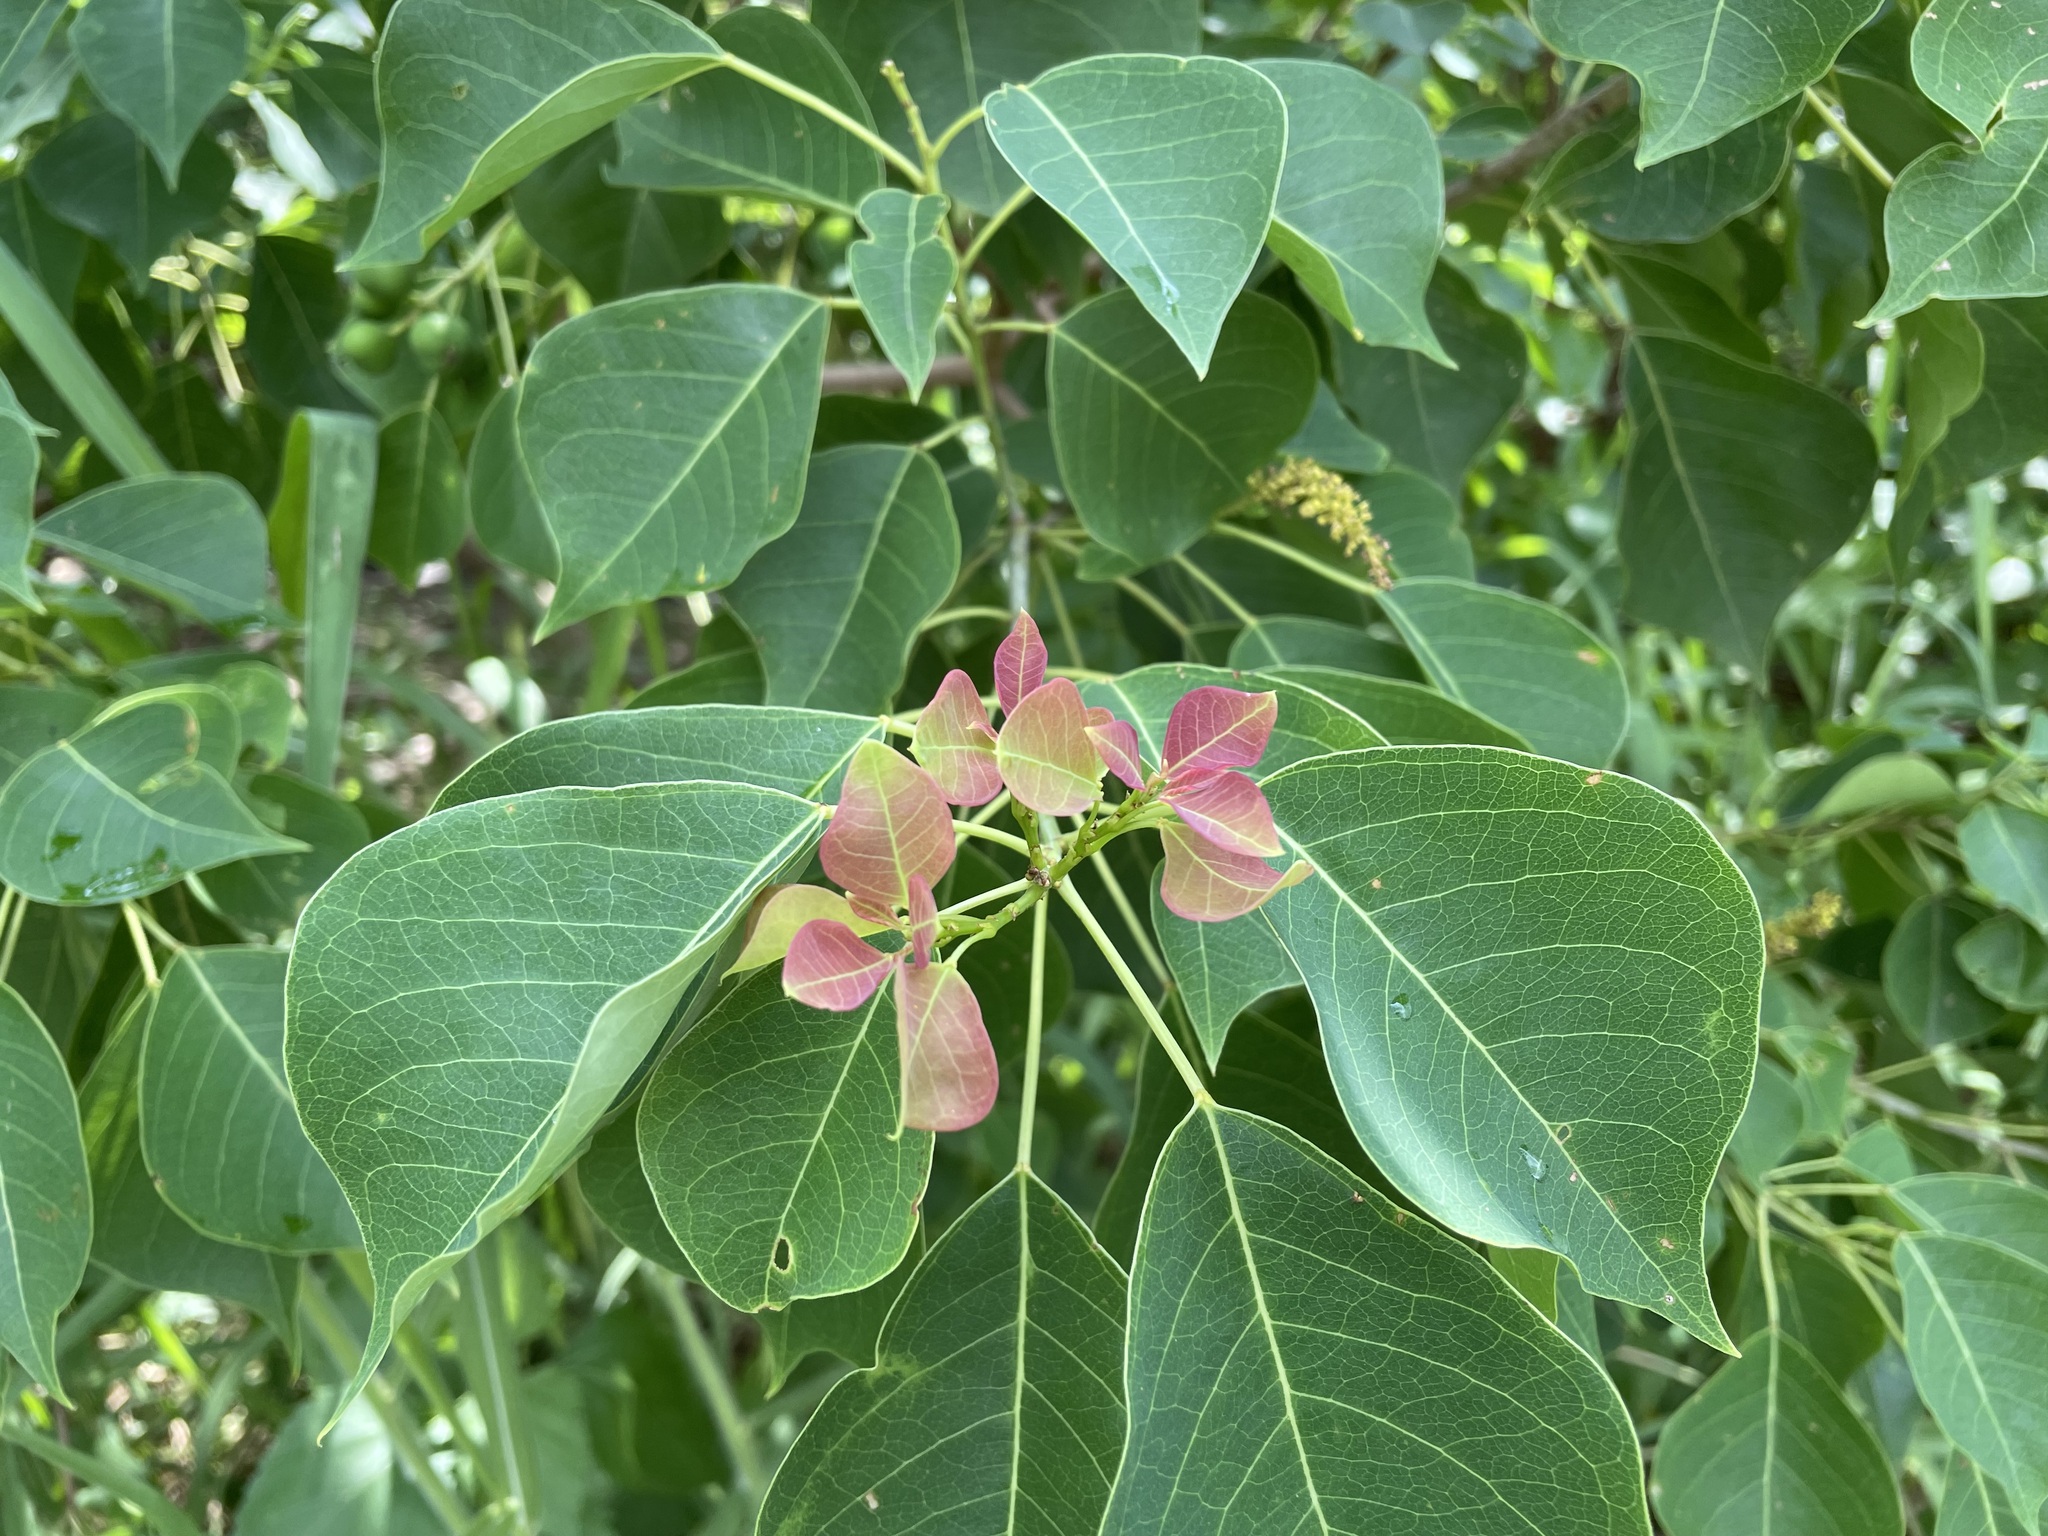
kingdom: Plantae
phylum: Tracheophyta
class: Magnoliopsida
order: Malpighiales
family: Euphorbiaceae
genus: Triadica
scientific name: Triadica sebifera
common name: Chinese tallow
